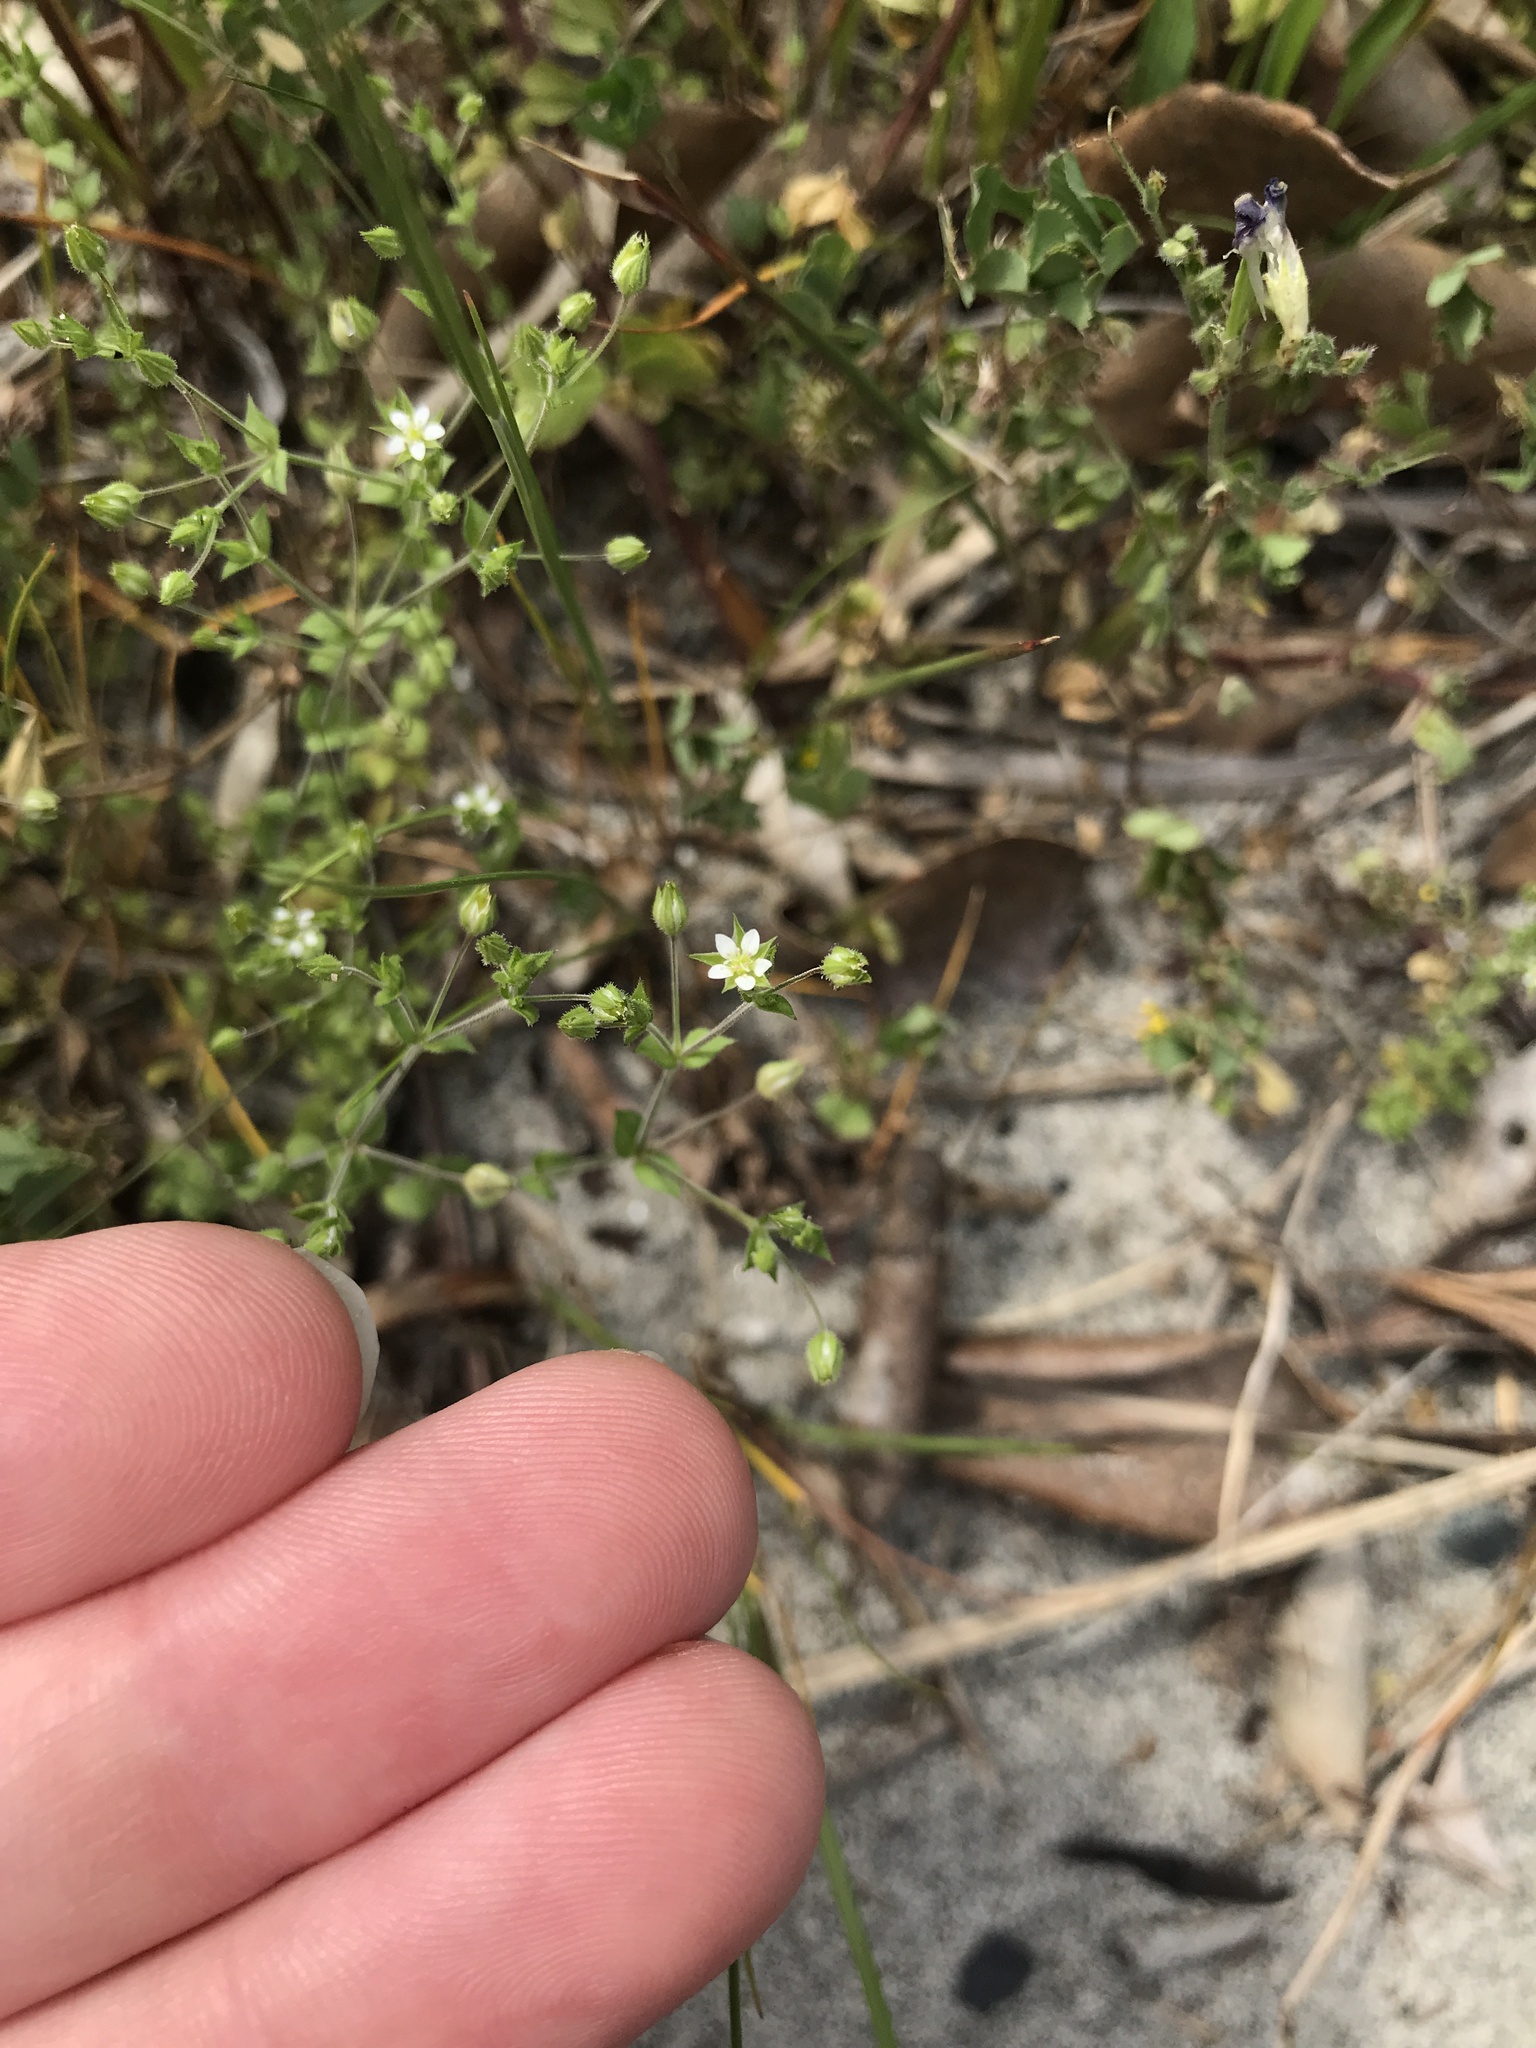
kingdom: Plantae
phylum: Tracheophyta
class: Magnoliopsida
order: Caryophyllales
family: Caryophyllaceae
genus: Arenaria
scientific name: Arenaria serpyllifolia
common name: Thyme-leaved sandwort
